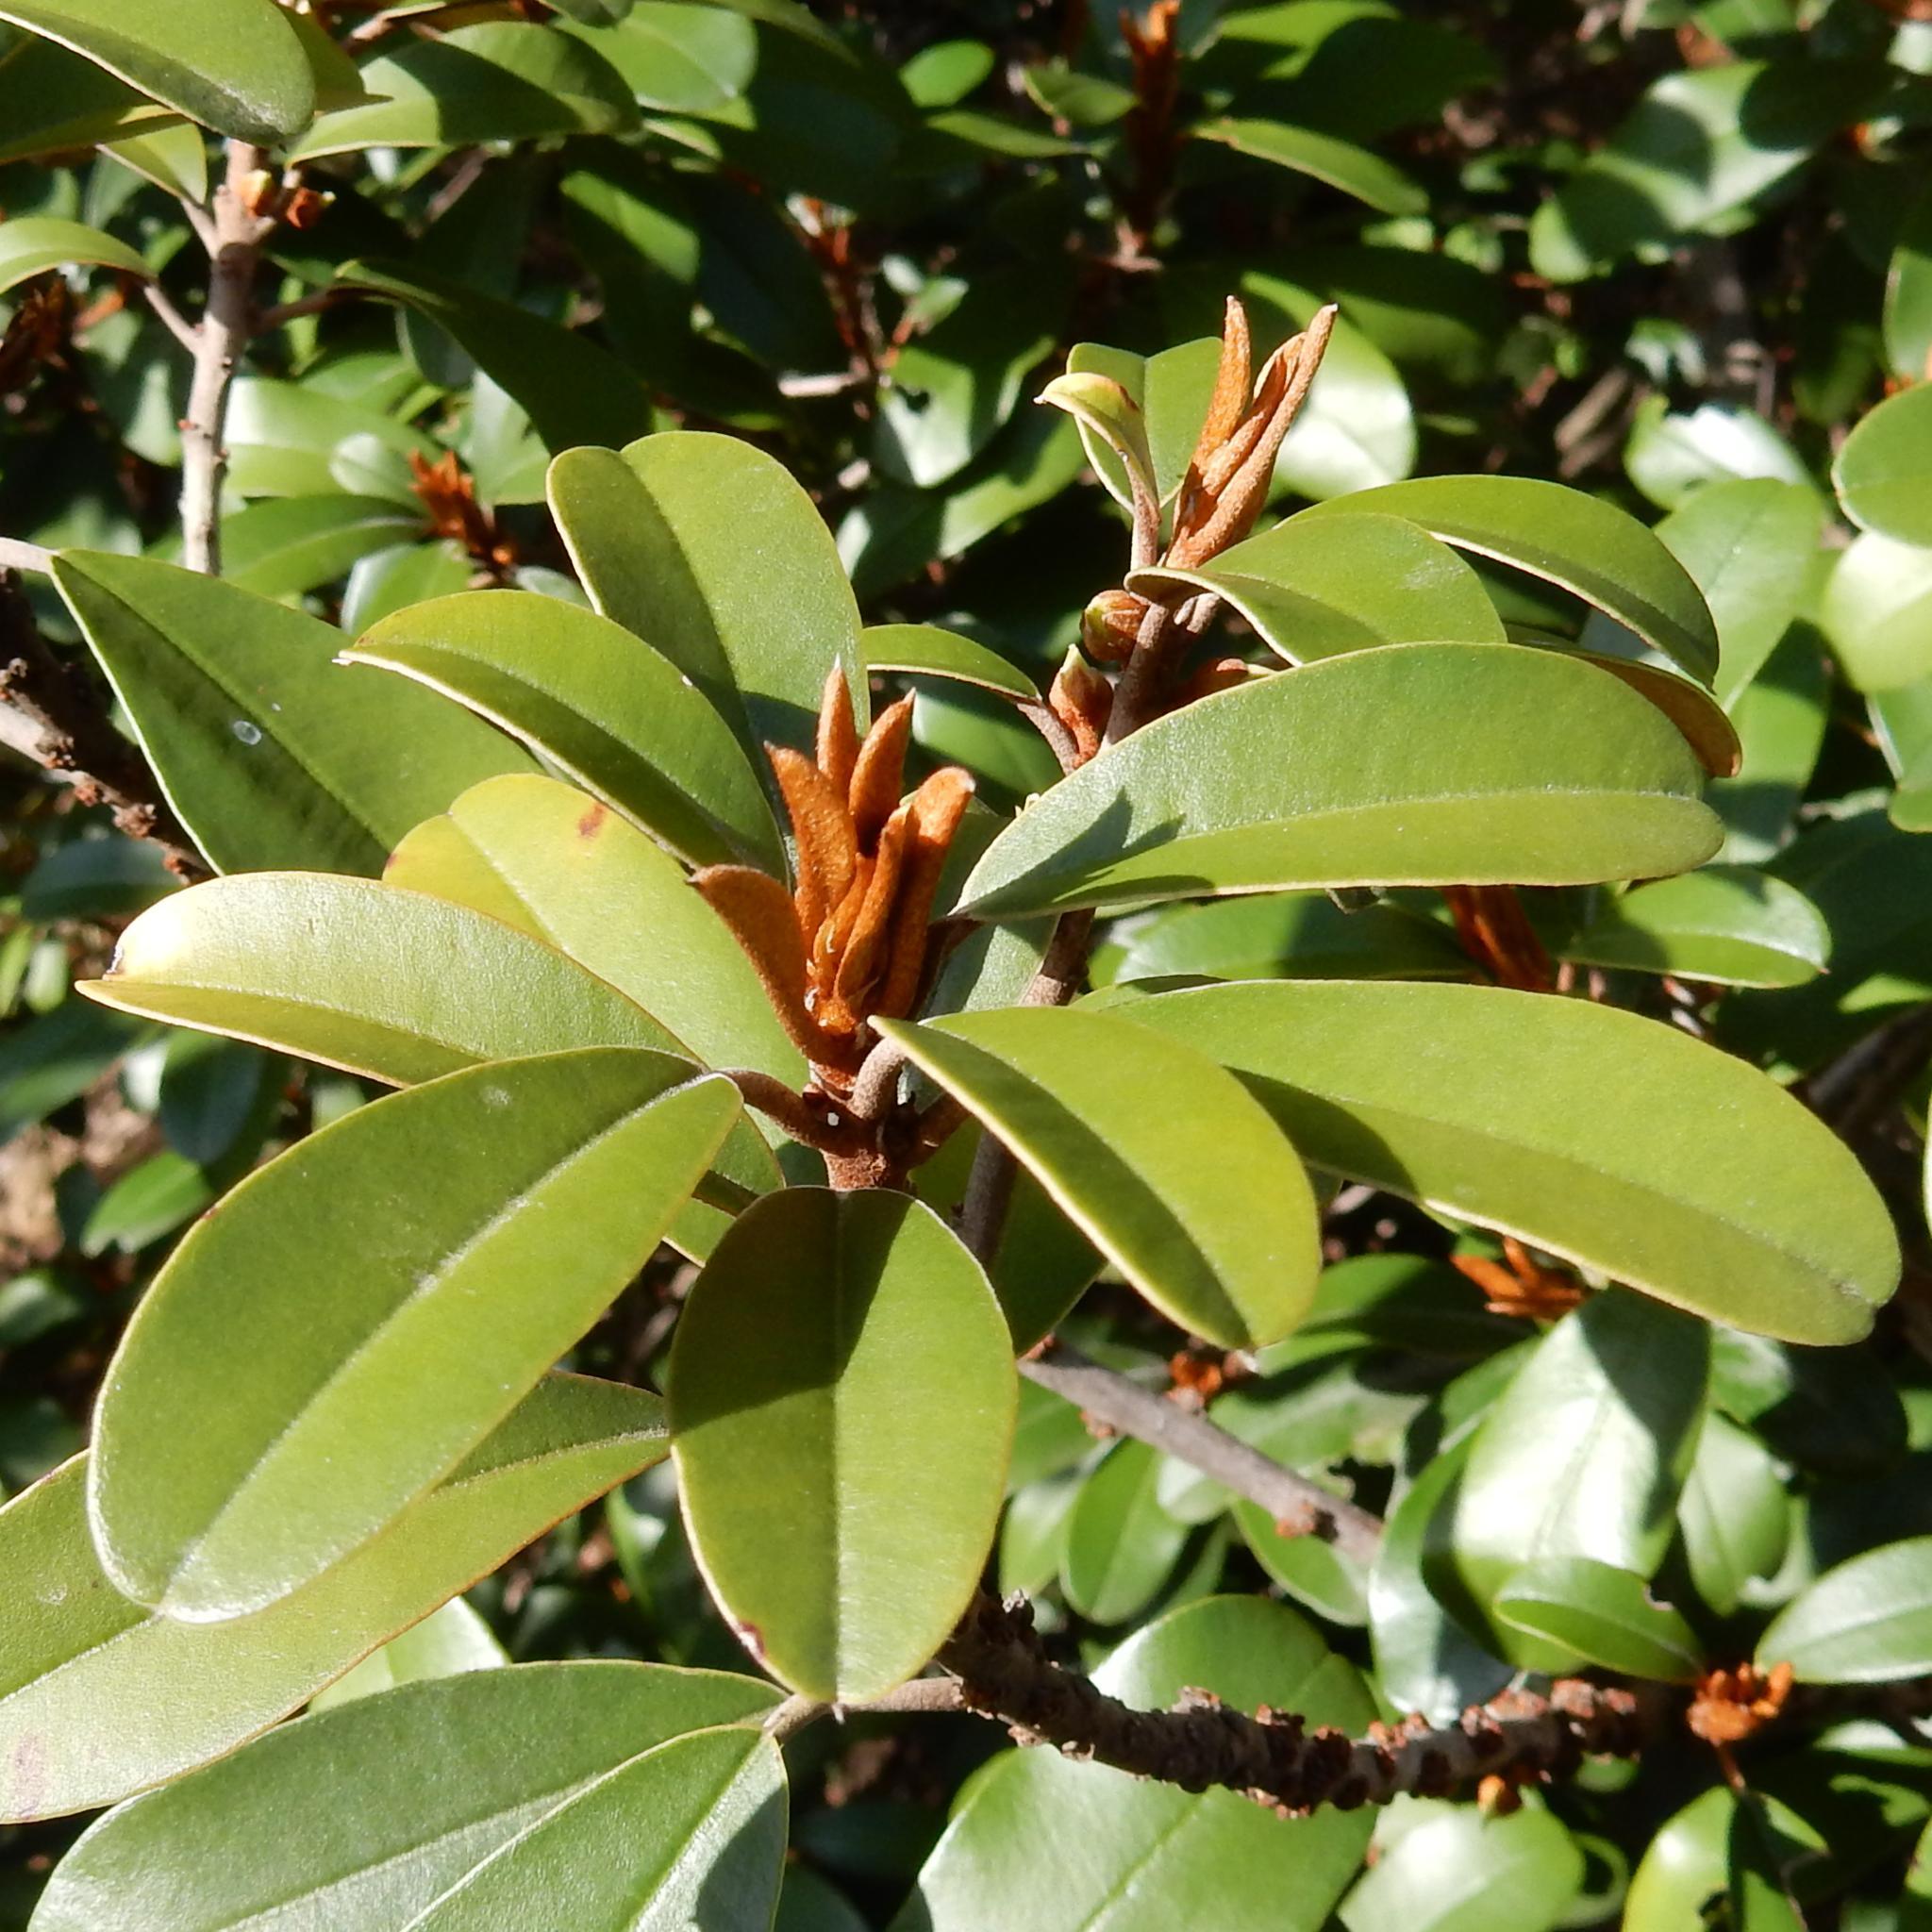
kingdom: Plantae
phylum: Tracheophyta
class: Magnoliopsida
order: Ericales
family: Sapotaceae
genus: Englerophytum
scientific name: Englerophytum magalismontanum
